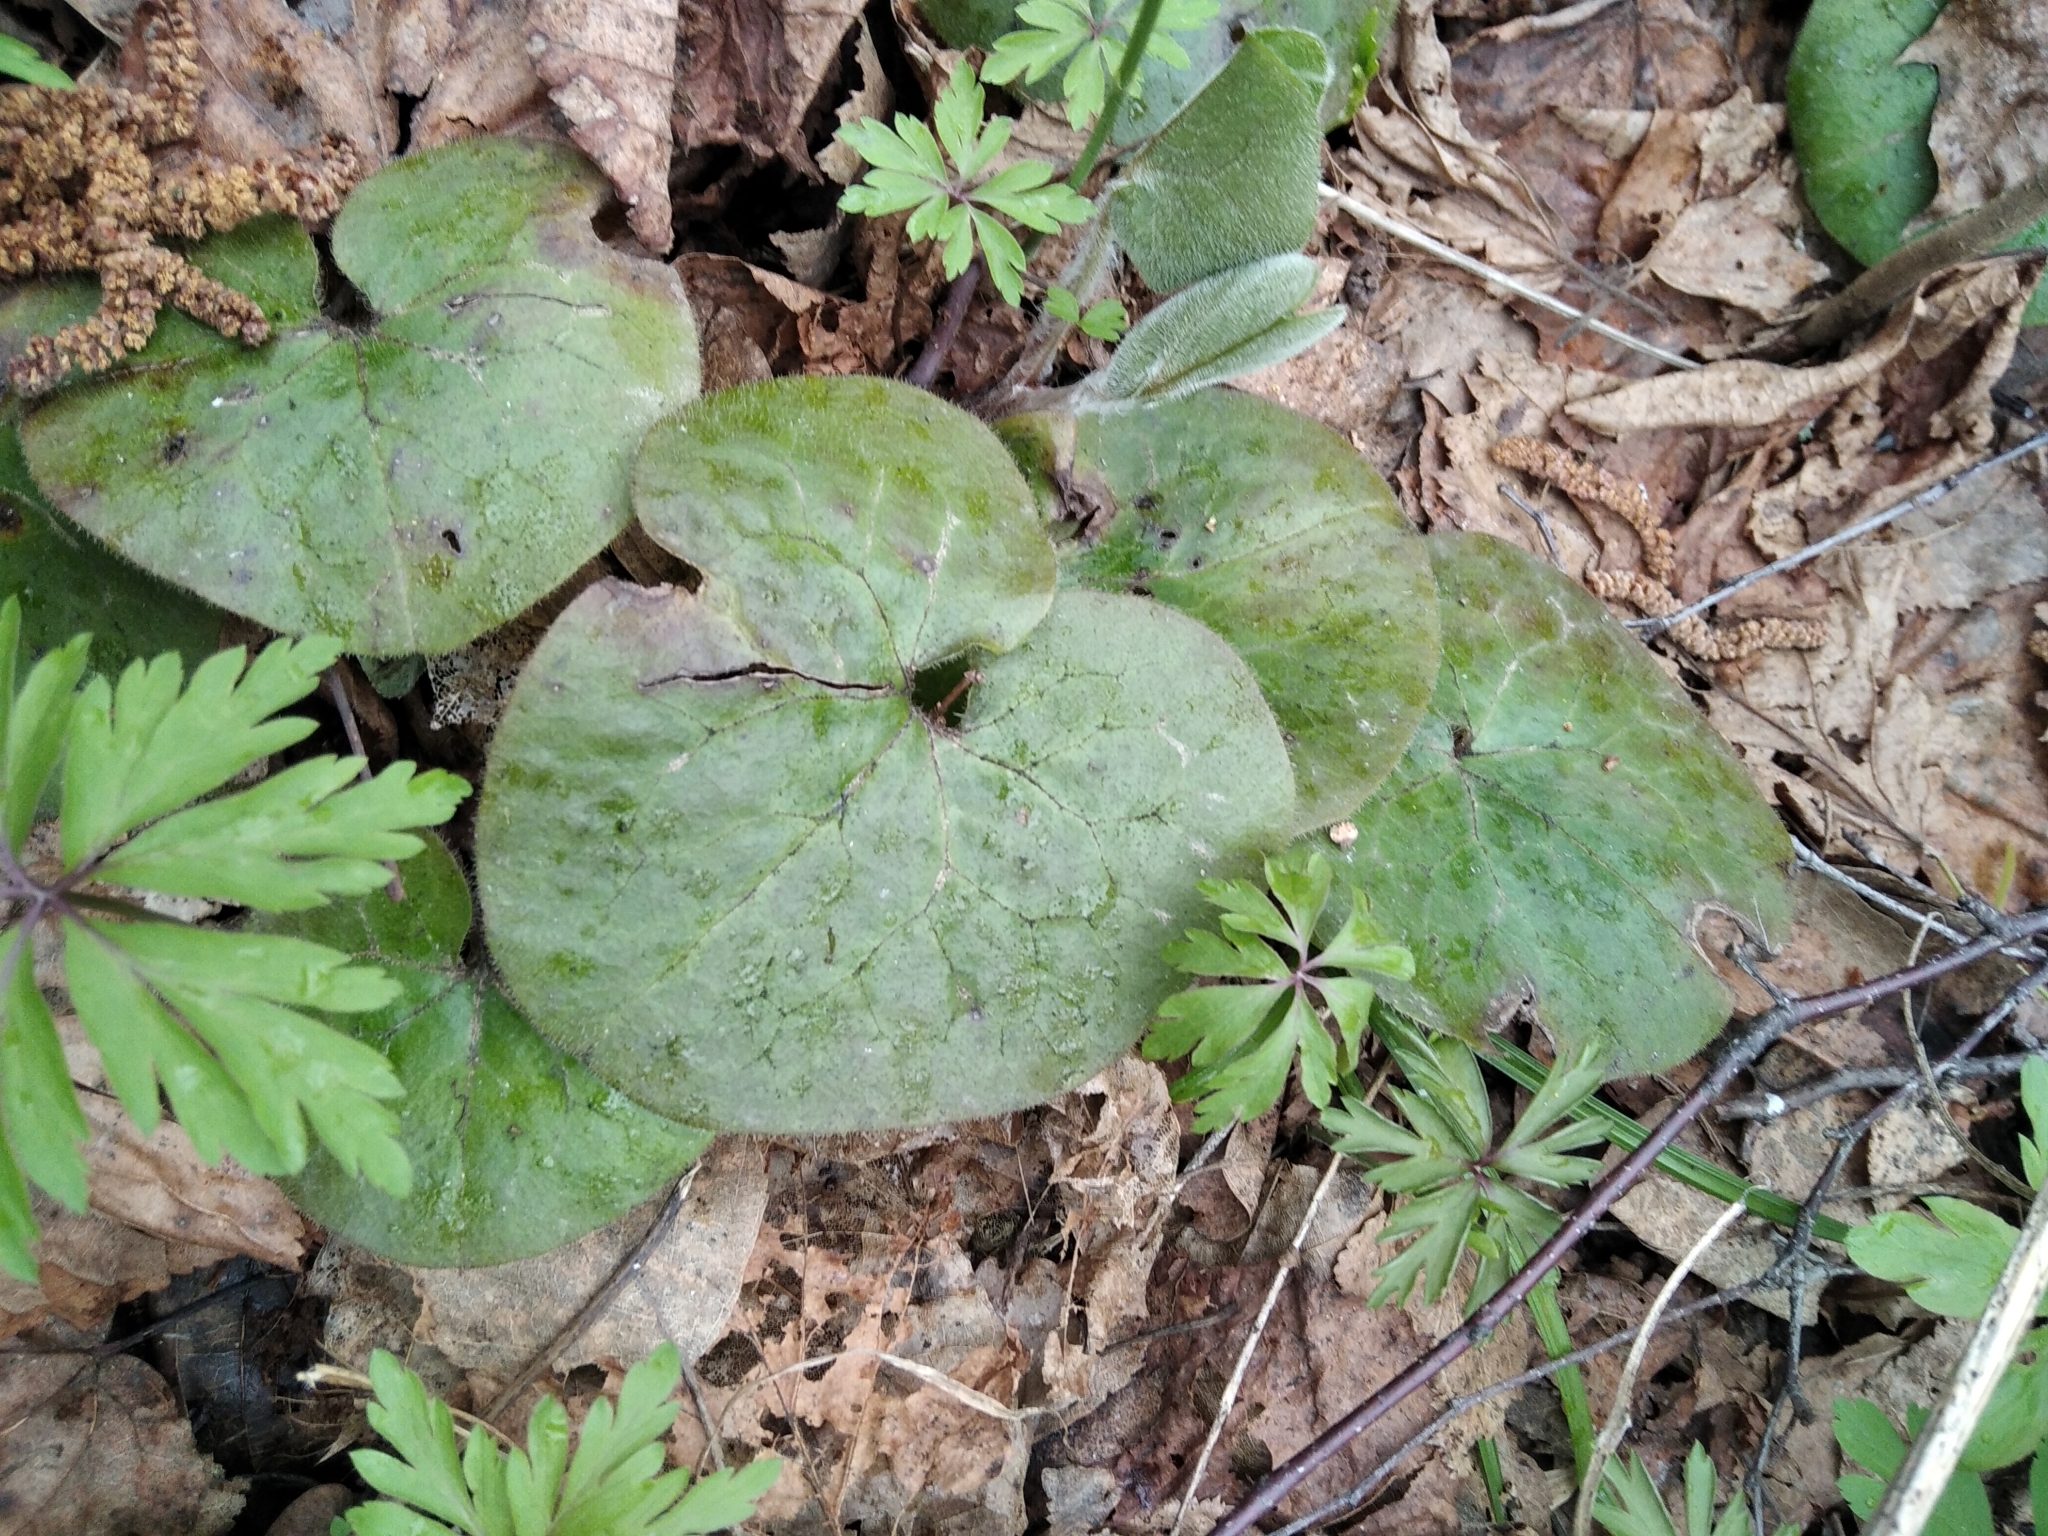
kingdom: Plantae
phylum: Tracheophyta
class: Magnoliopsida
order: Piperales
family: Aristolochiaceae
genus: Asarum
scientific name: Asarum europaeum
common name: Asarabacca
